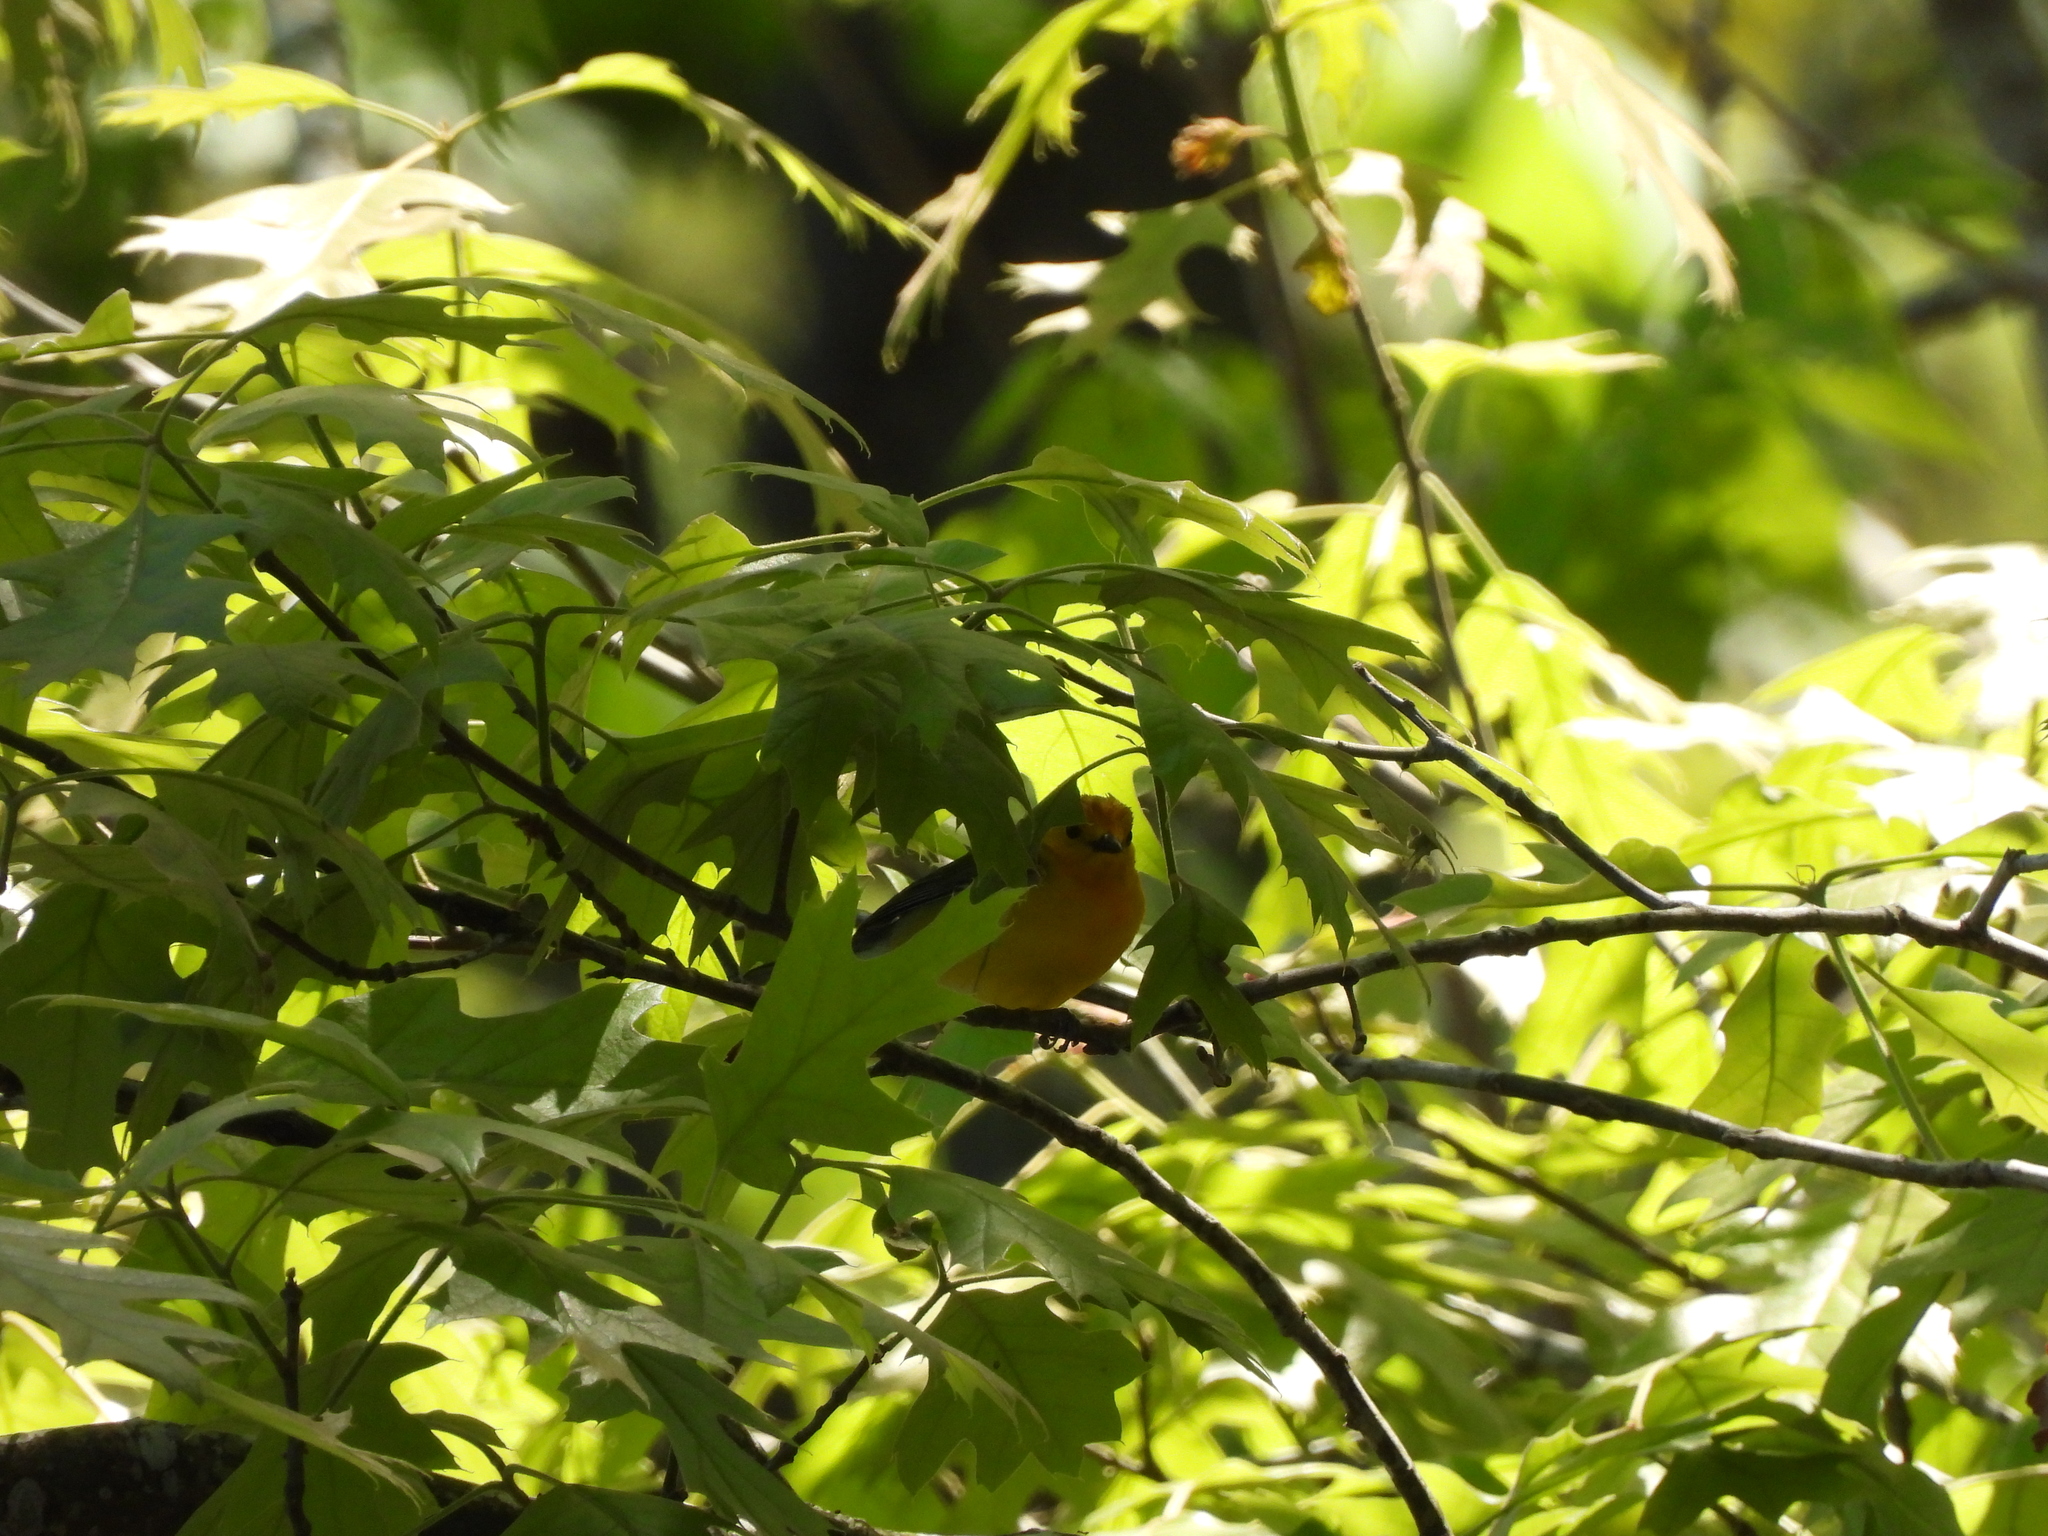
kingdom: Animalia
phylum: Chordata
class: Aves
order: Passeriformes
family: Parulidae
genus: Protonotaria
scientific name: Protonotaria citrea
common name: Prothonotary warbler
